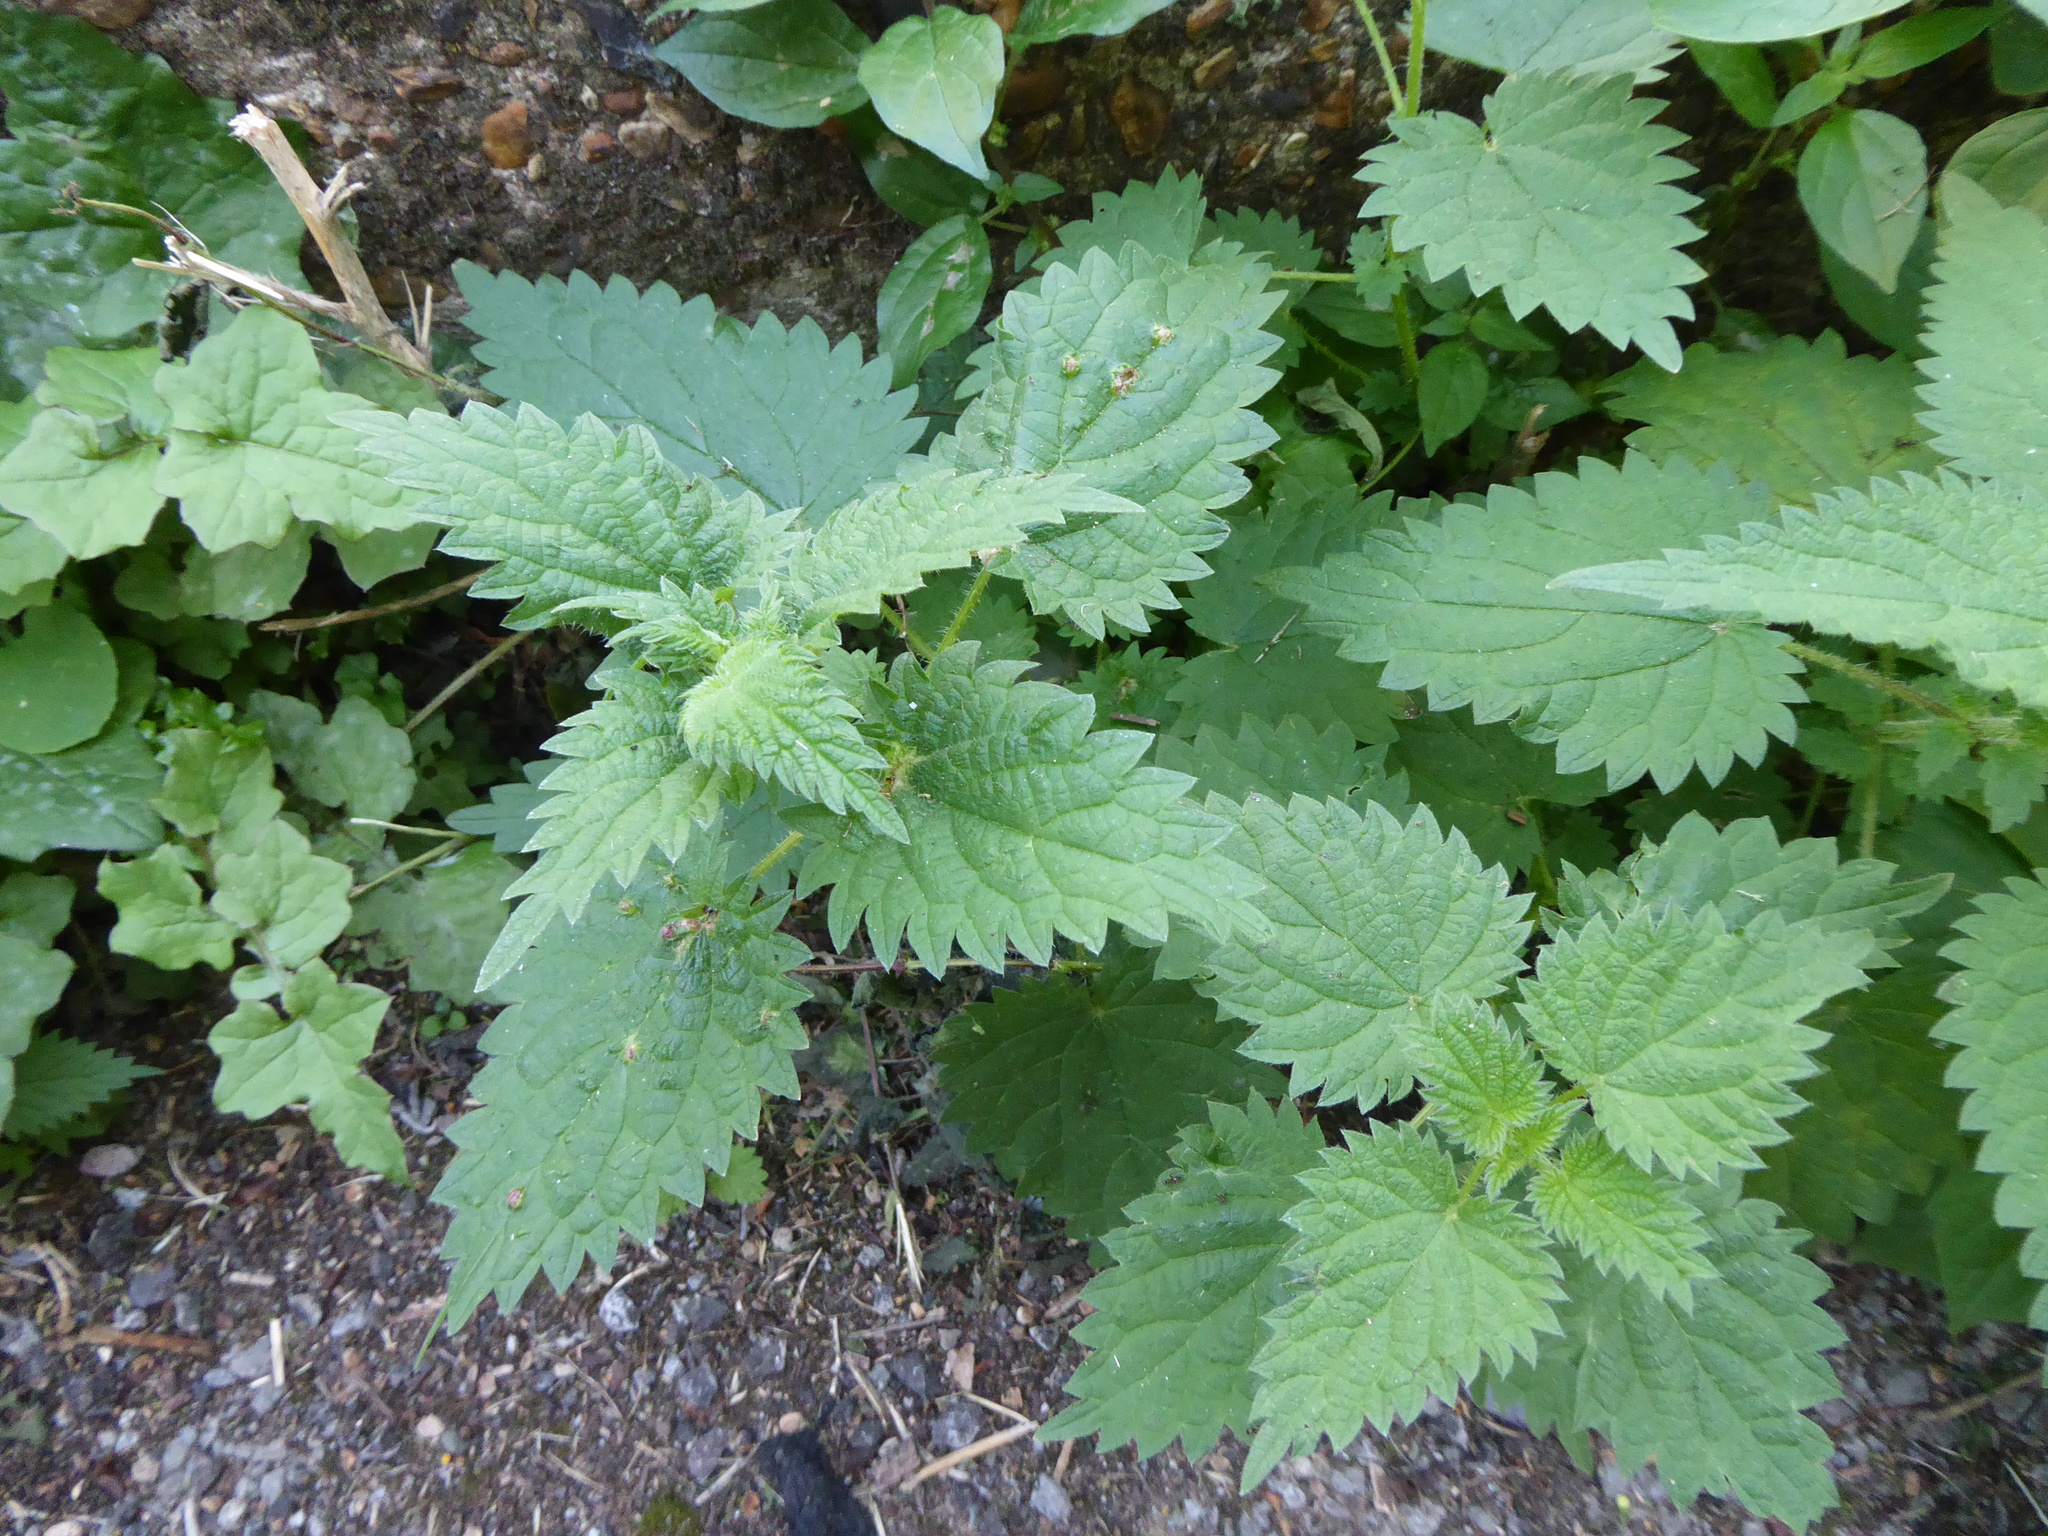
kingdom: Plantae
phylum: Tracheophyta
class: Magnoliopsida
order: Rosales
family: Urticaceae
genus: Urtica
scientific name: Urtica dioica
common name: Common nettle
